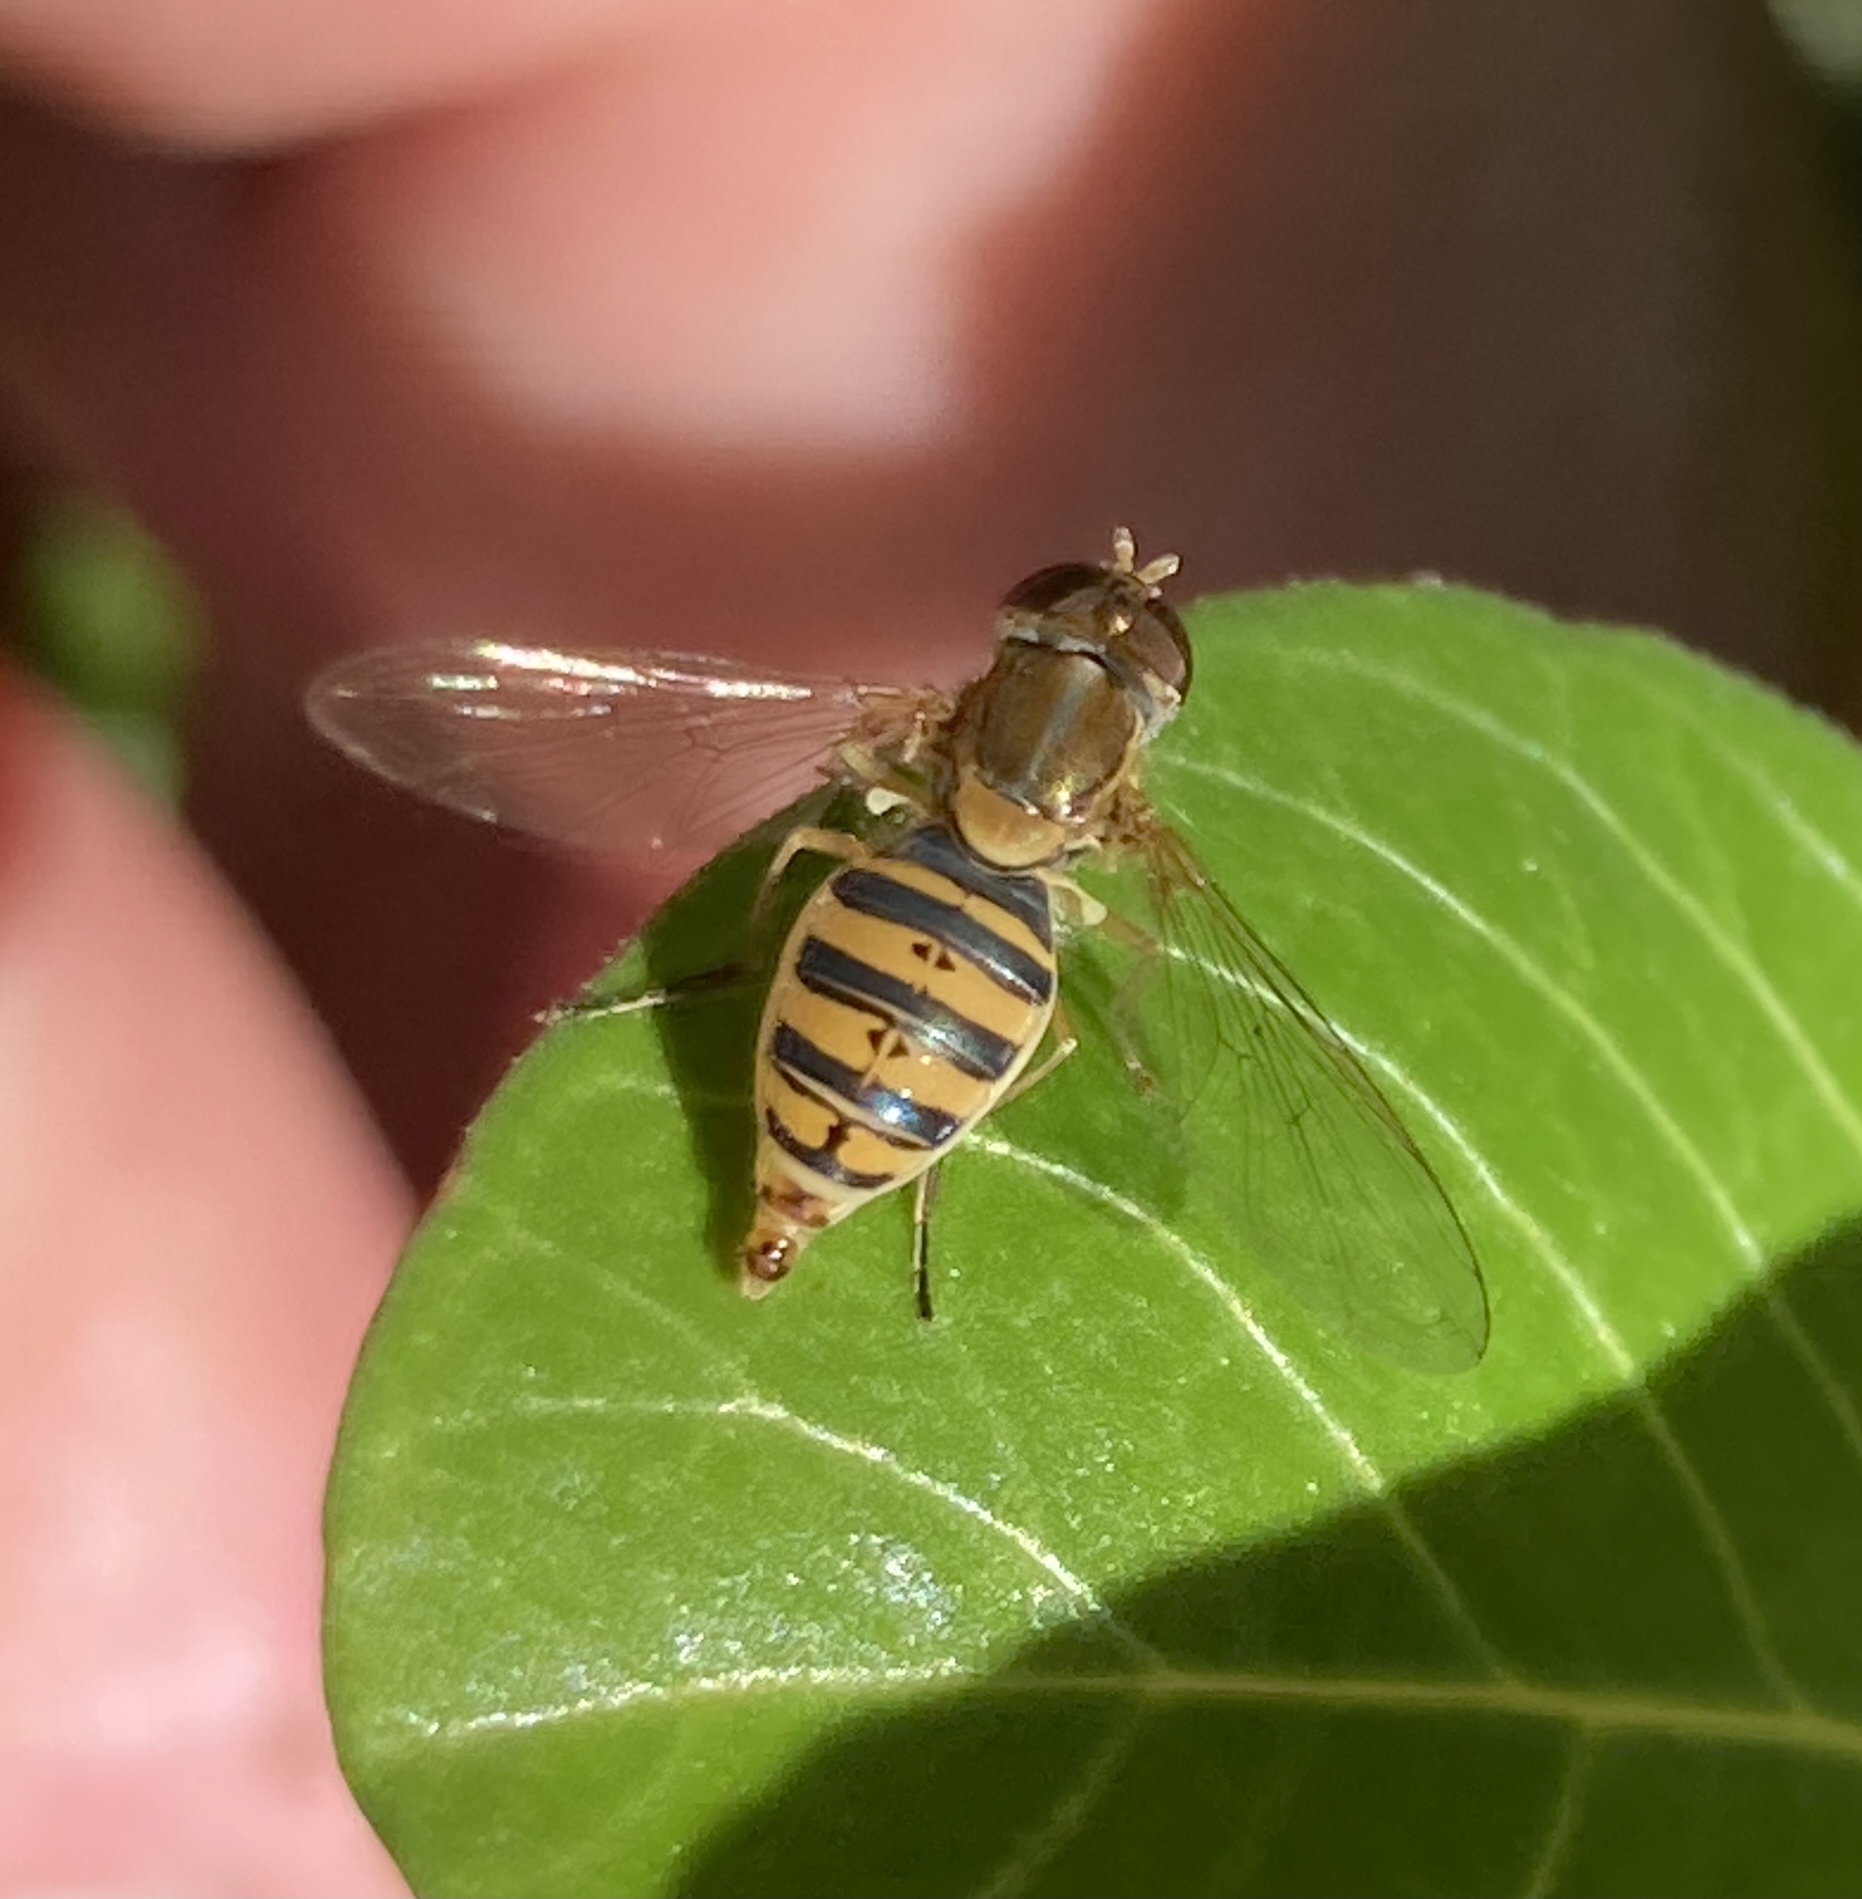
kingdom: Animalia
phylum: Arthropoda
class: Insecta
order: Diptera
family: Syrphidae
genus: Toxomerus
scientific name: Toxomerus
